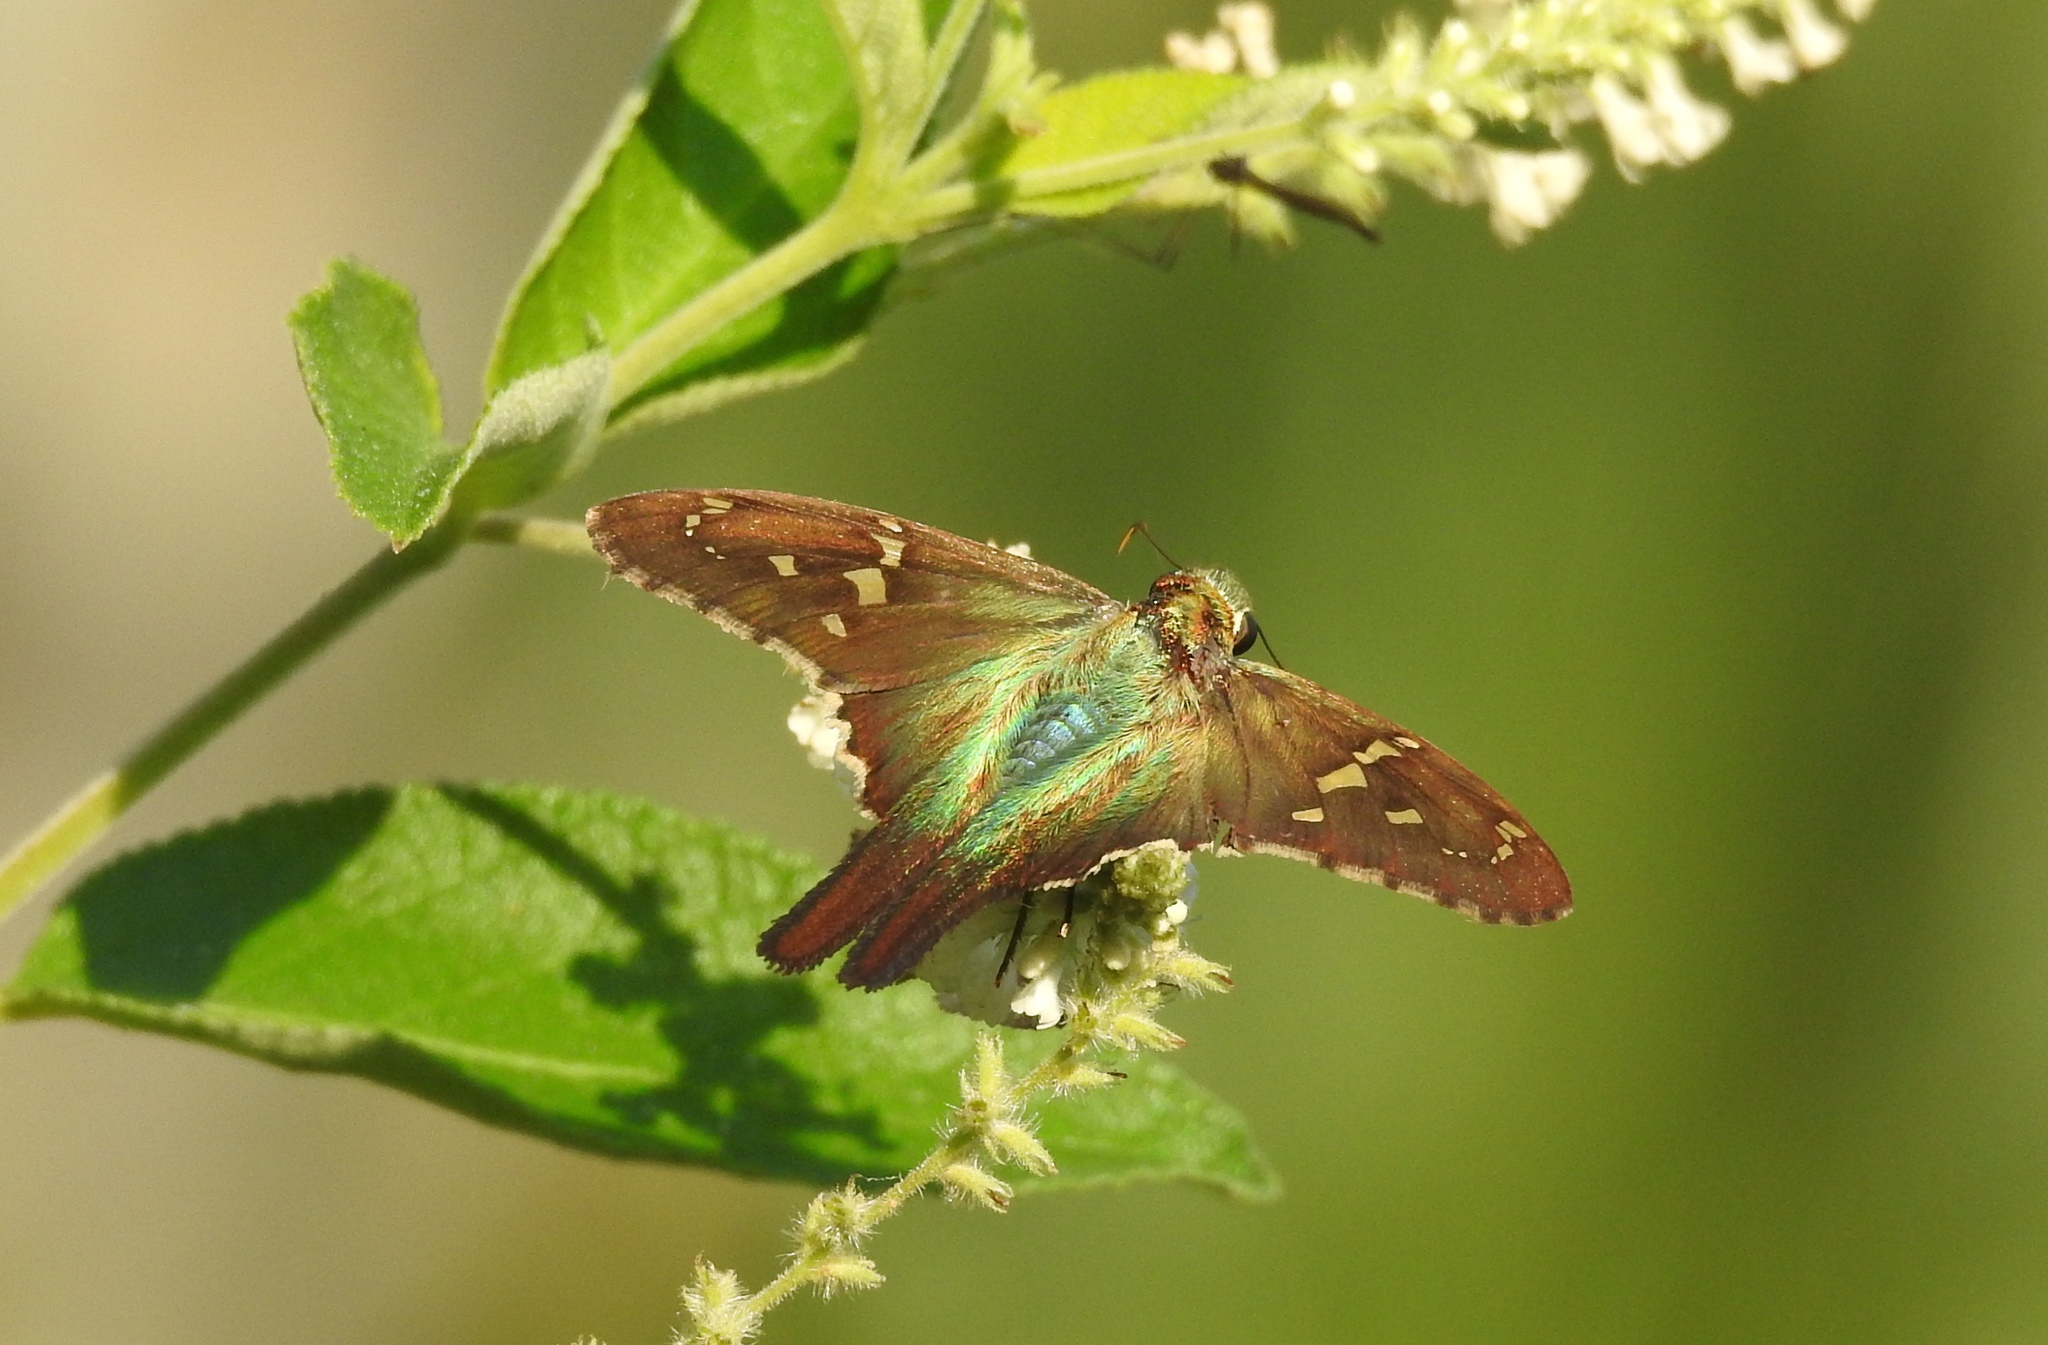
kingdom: Animalia
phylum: Arthropoda
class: Insecta
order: Lepidoptera
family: Hesperiidae
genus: Urbanus
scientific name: Urbanus proteus
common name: Long-tailed skipper
